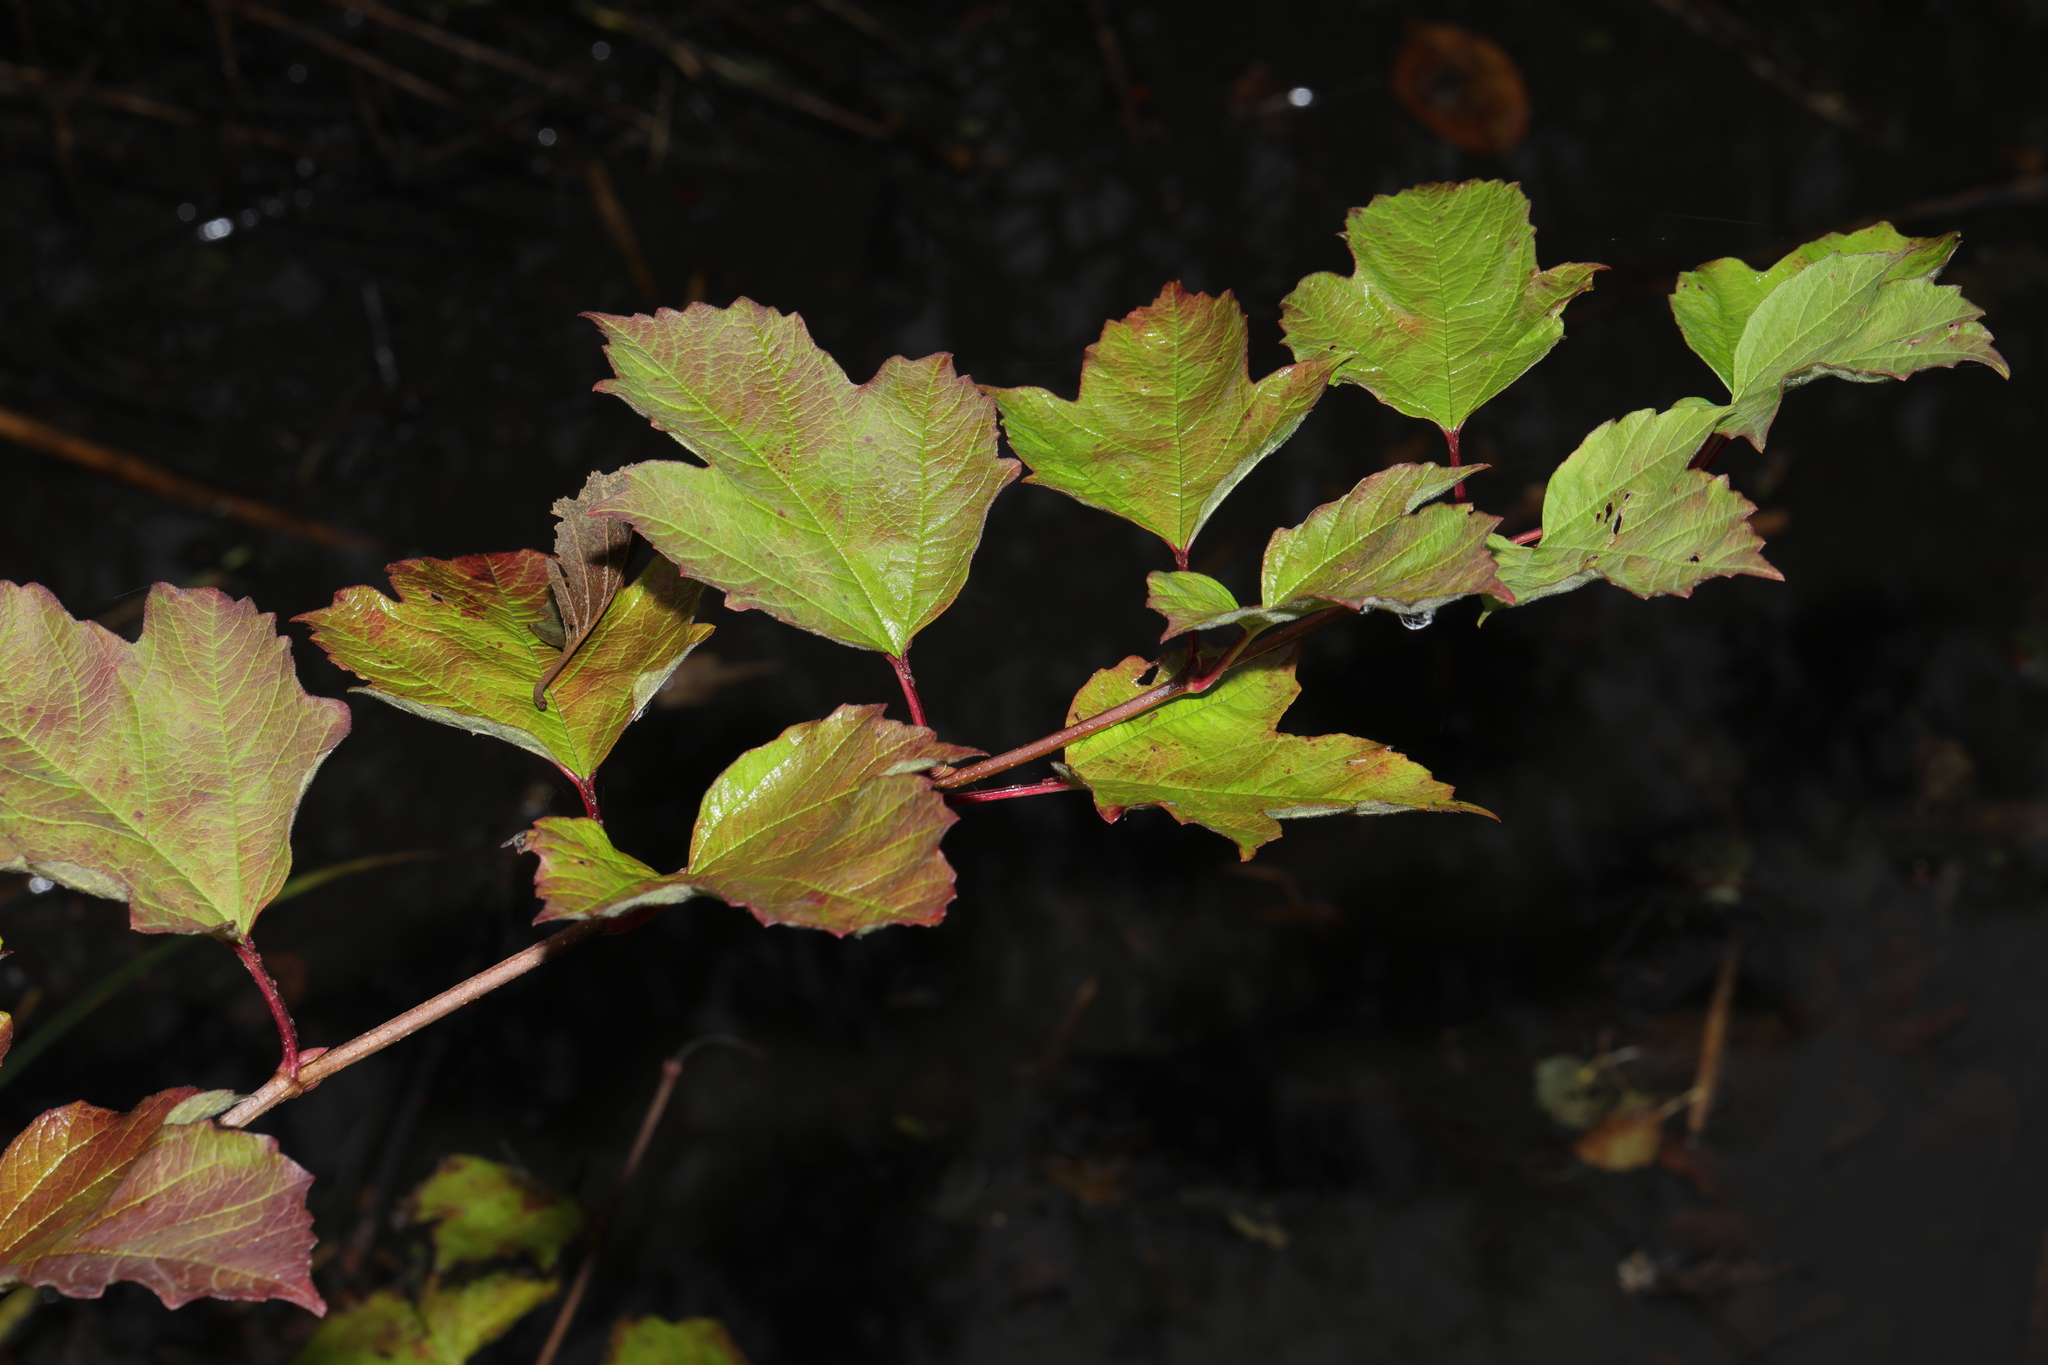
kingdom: Plantae
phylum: Tracheophyta
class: Magnoliopsida
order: Dipsacales
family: Viburnaceae
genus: Viburnum
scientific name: Viburnum opulus
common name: Guelder-rose
